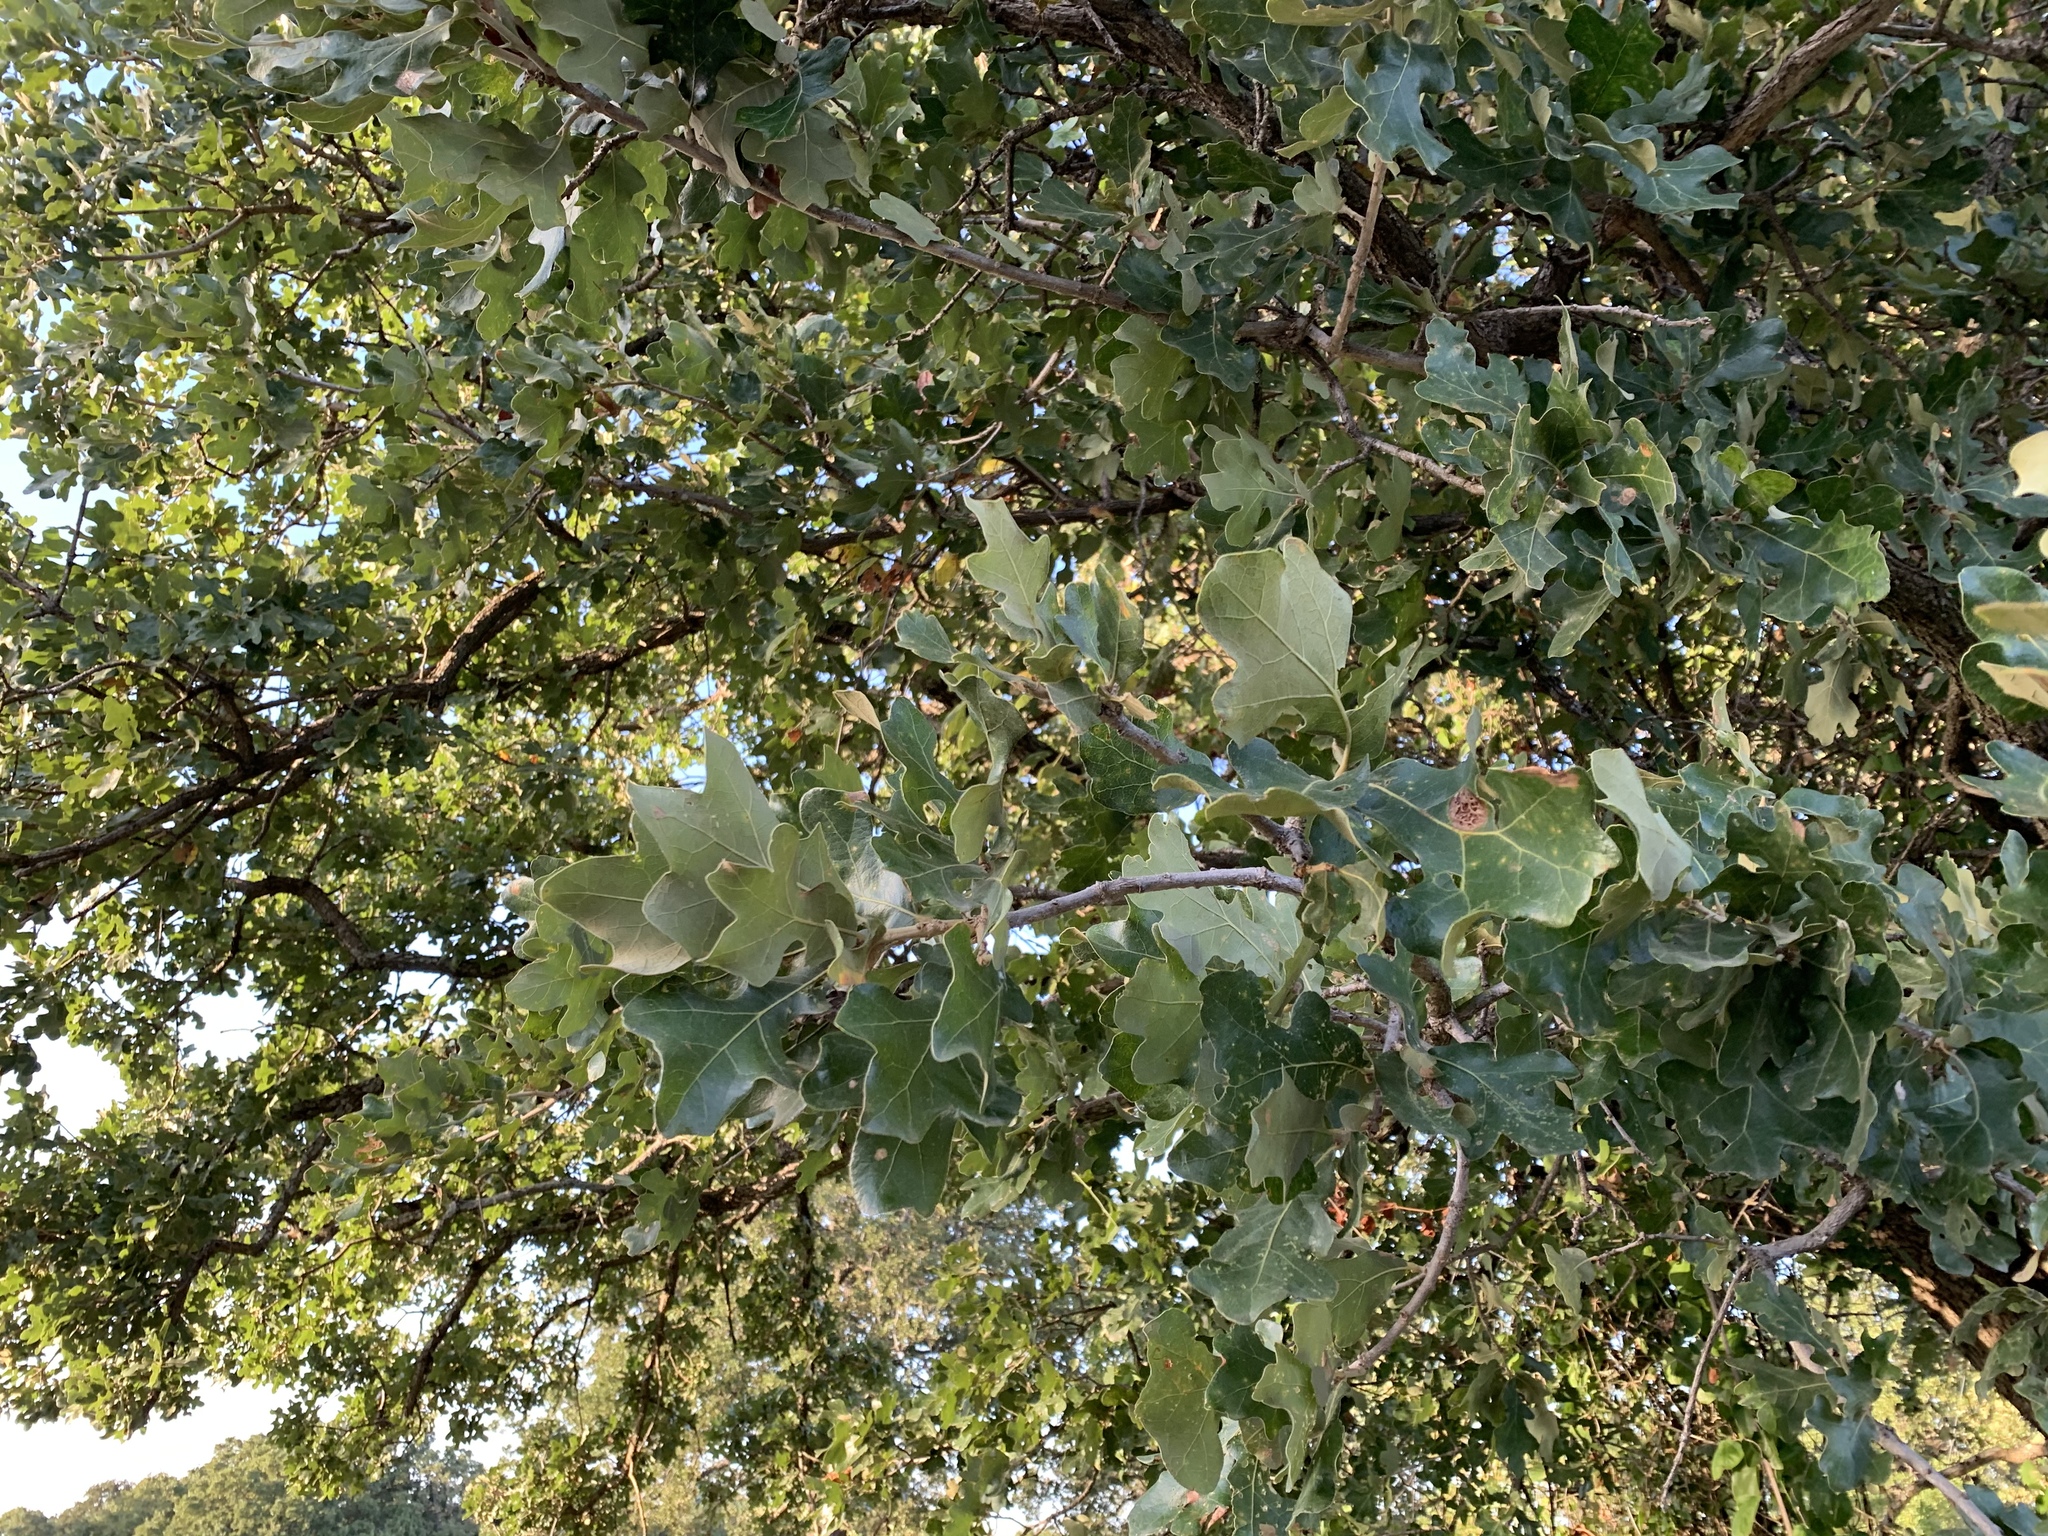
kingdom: Plantae
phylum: Tracheophyta
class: Magnoliopsida
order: Fagales
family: Fagaceae
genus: Quercus
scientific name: Quercus stellata
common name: Post oak
